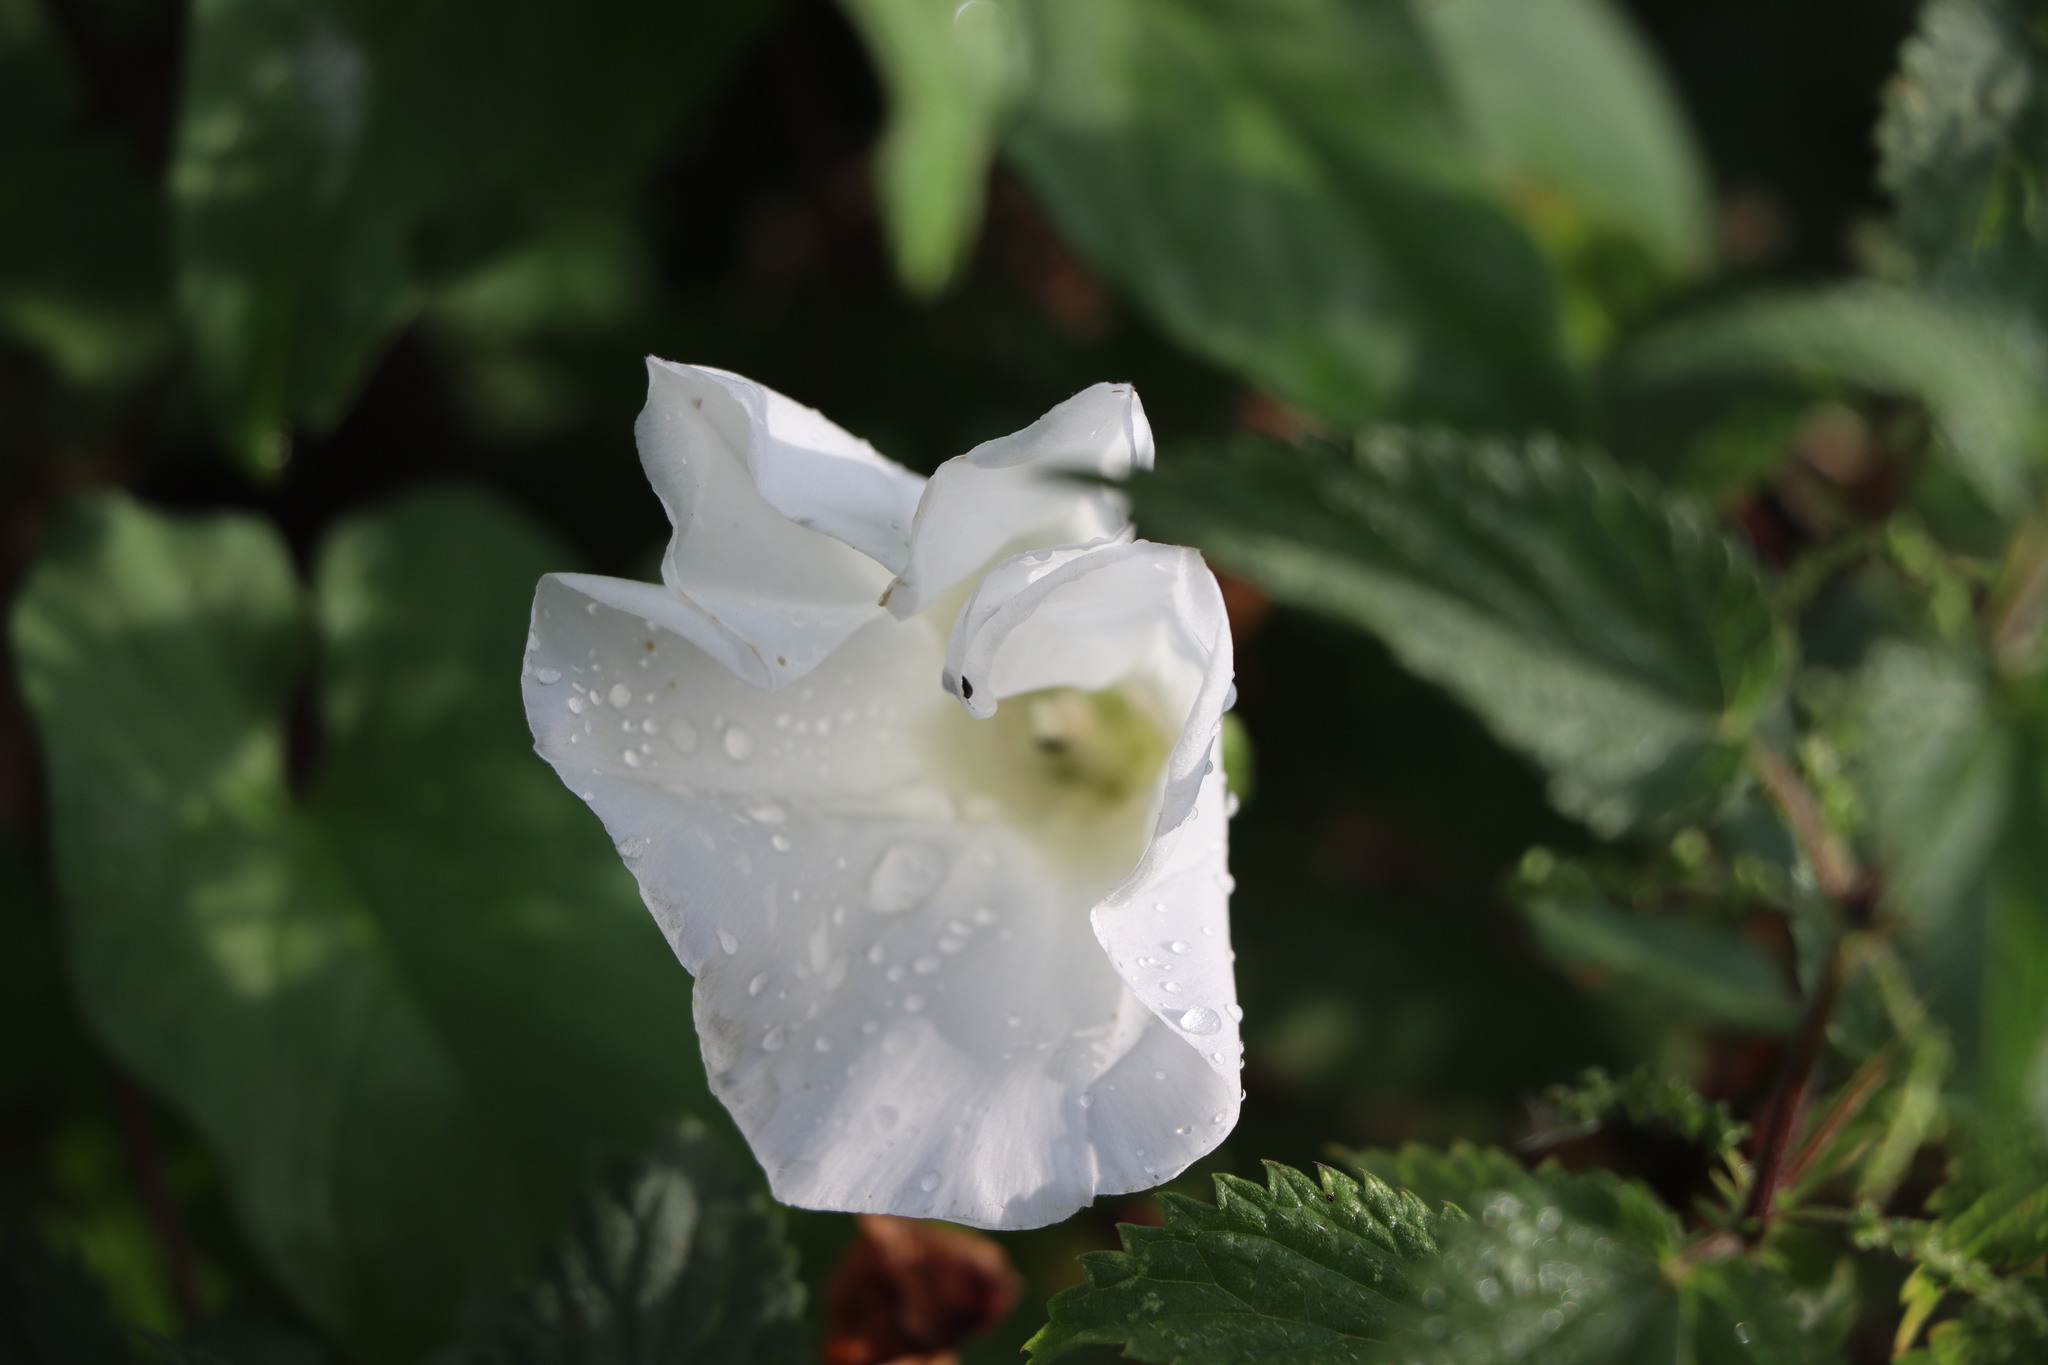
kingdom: Plantae
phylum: Tracheophyta
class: Magnoliopsida
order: Solanales
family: Convolvulaceae
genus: Calystegia
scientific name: Calystegia silvatica
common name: Large bindweed
